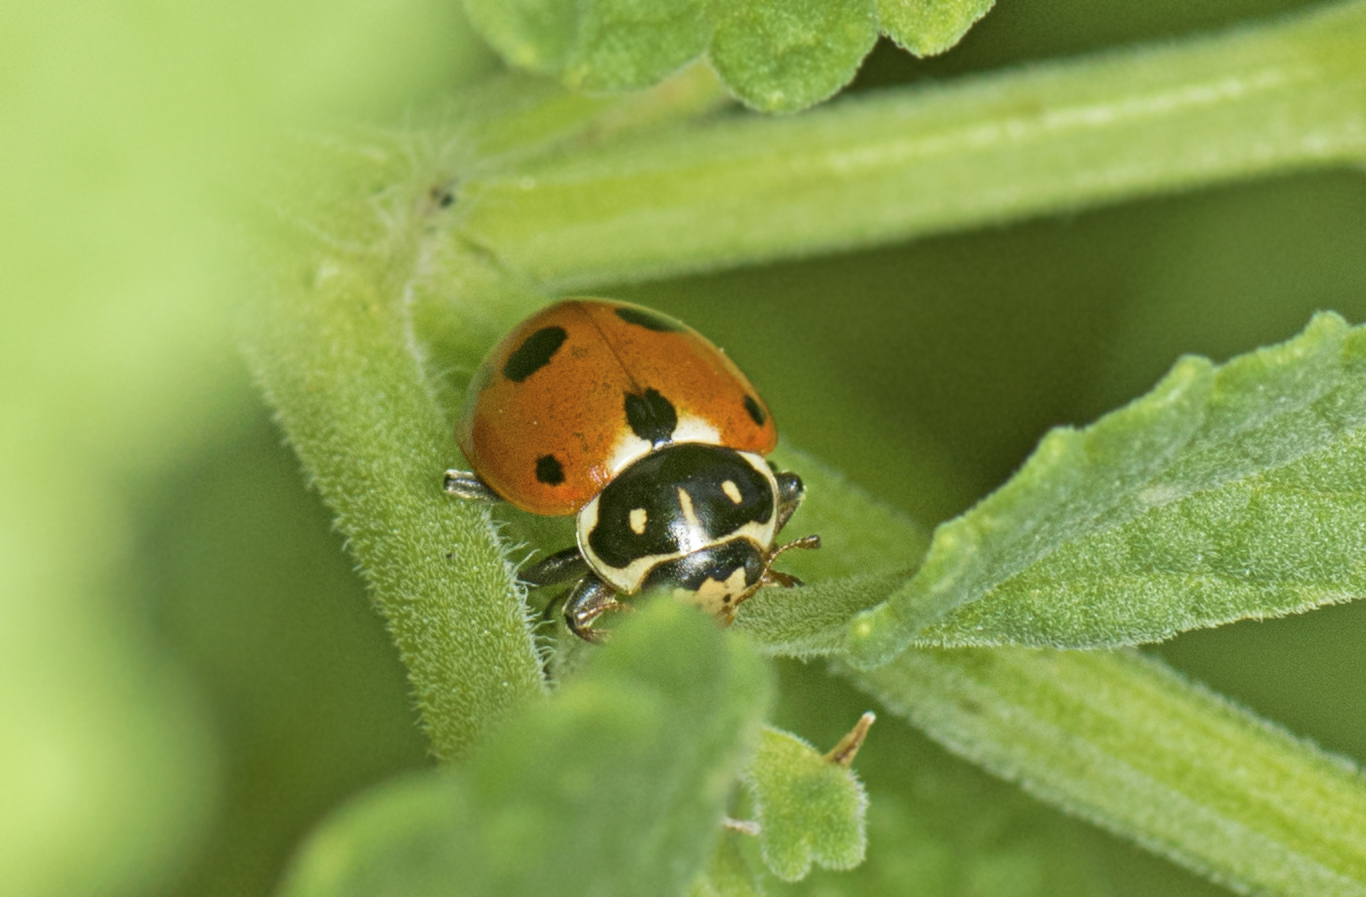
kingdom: Animalia
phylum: Arthropoda
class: Insecta
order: Coleoptera
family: Coccinellidae
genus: Hippodamia
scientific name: Hippodamia variegata
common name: Ladybird beetle
